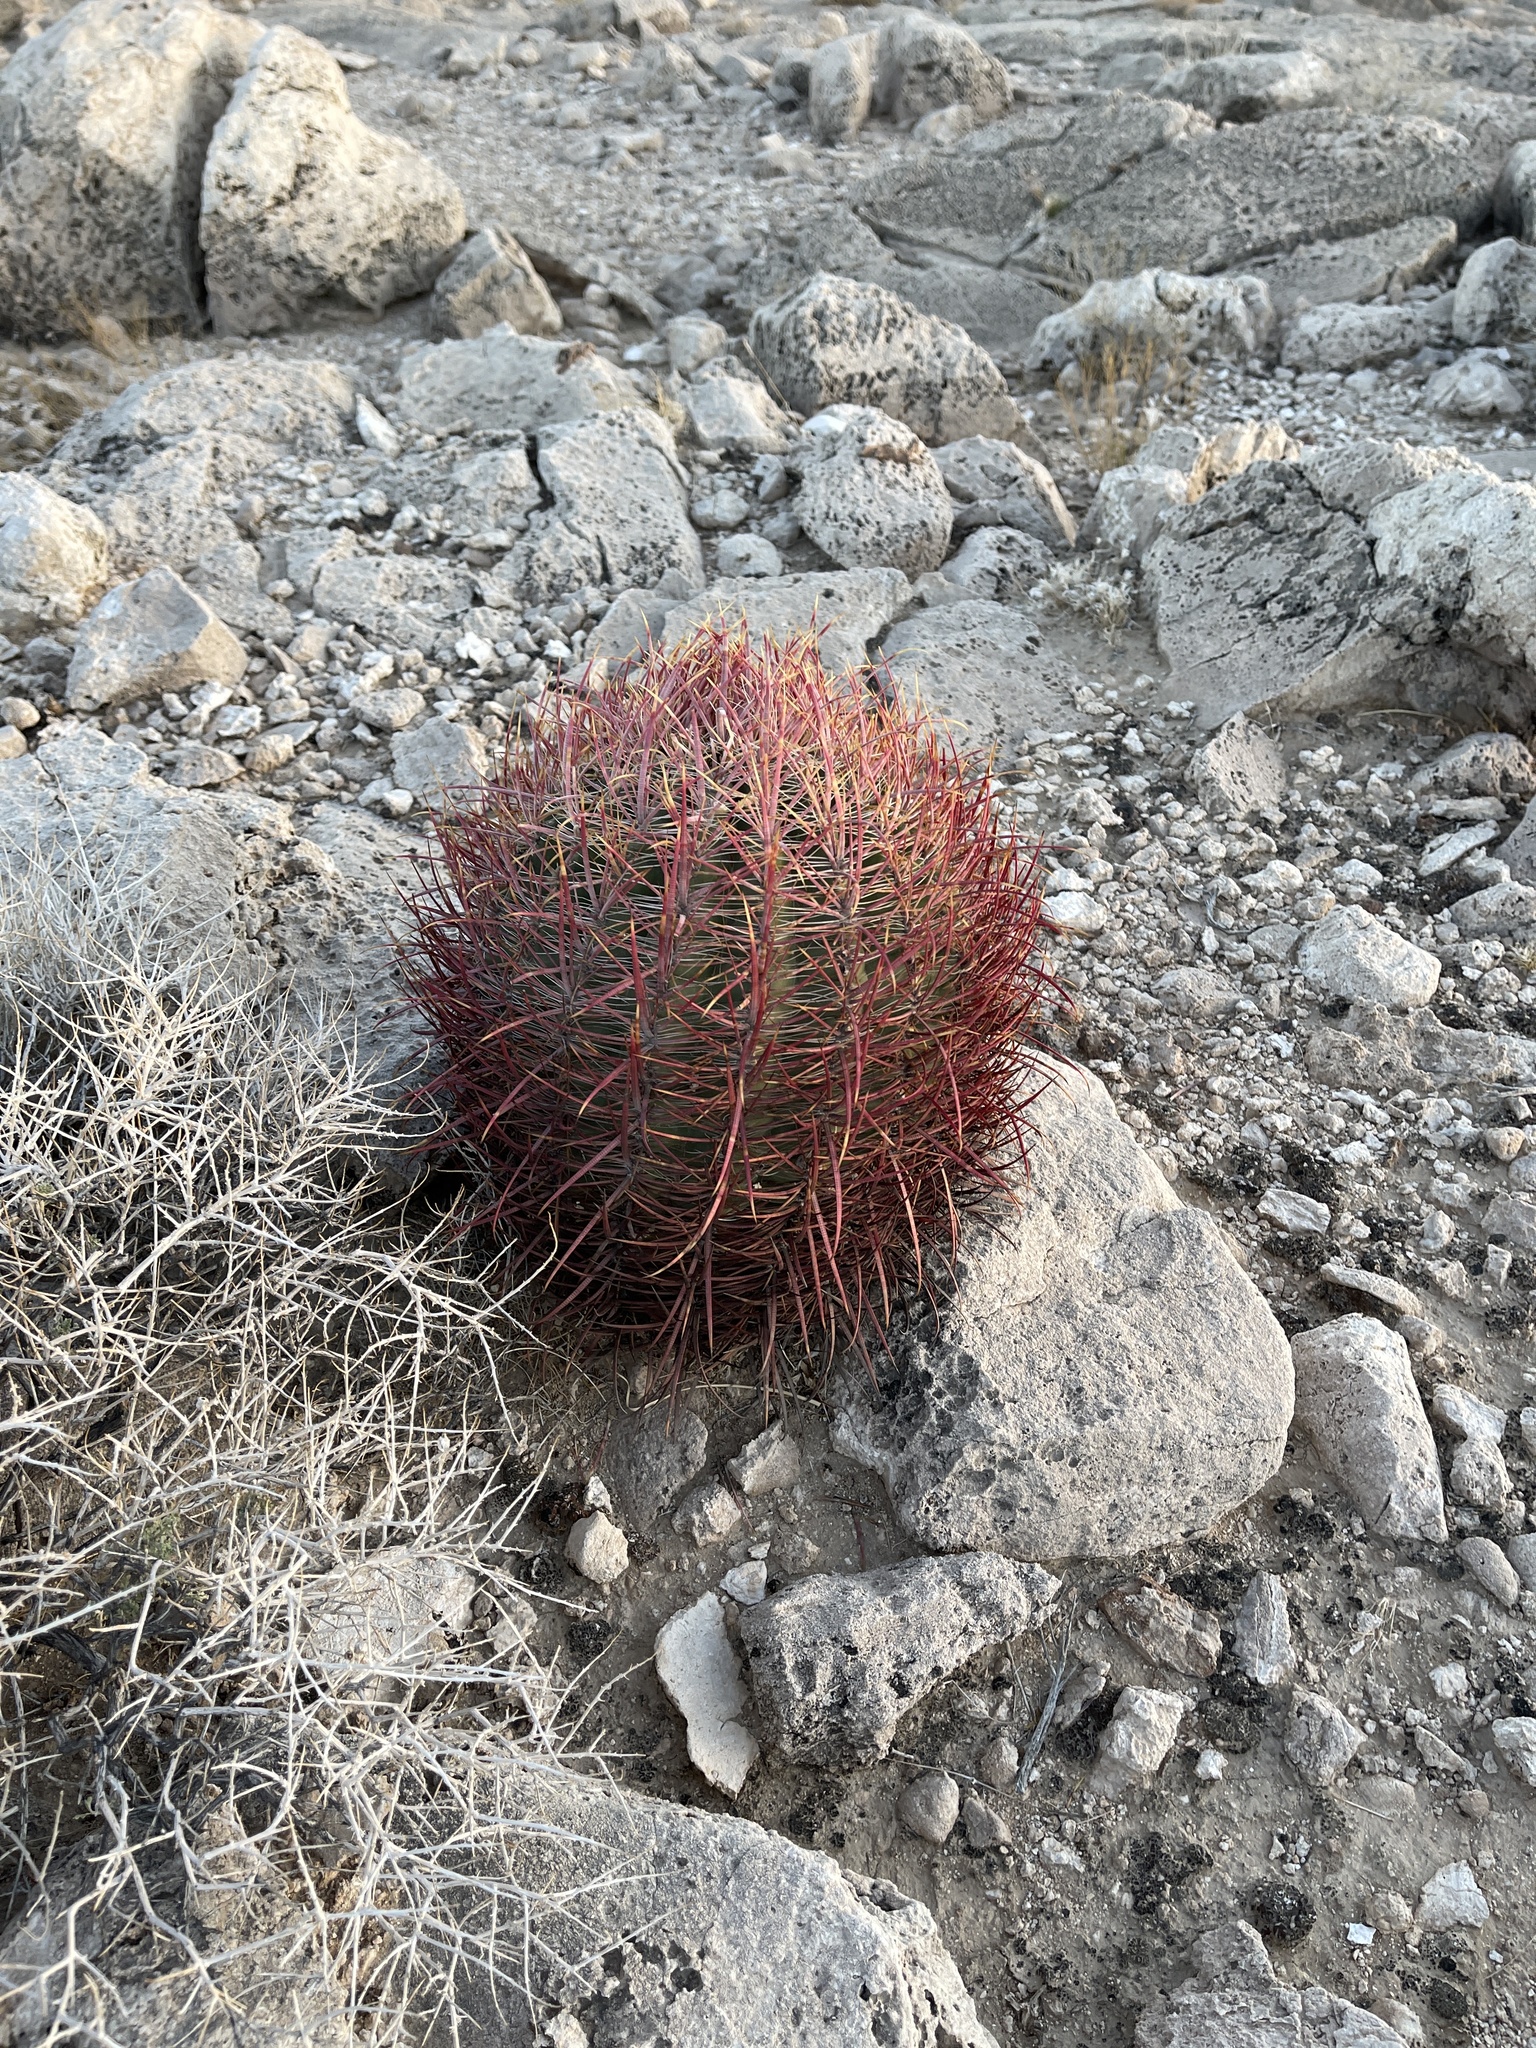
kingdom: Plantae
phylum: Tracheophyta
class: Magnoliopsida
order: Caryophyllales
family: Cactaceae
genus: Ferocactus
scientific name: Ferocactus cylindraceus
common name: California barrel cactus
